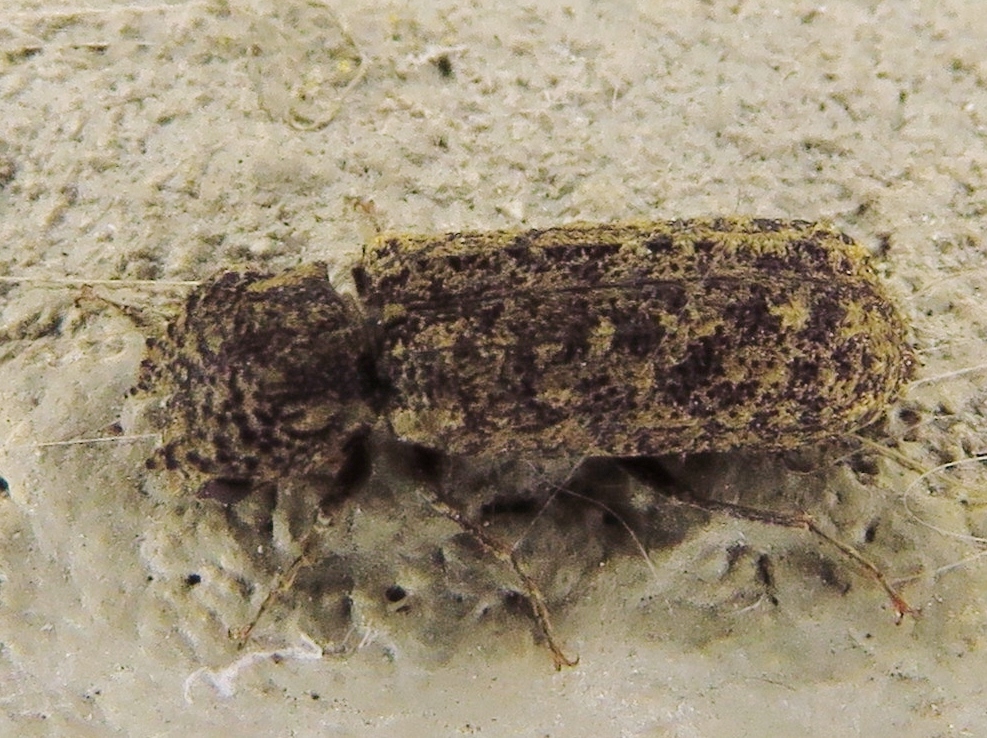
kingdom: Animalia
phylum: Arthropoda
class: Insecta
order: Coleoptera
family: Bostrichidae
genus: Lichenophanes
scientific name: Lichenophanes bicornis
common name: Two-horned powder-post beetle
